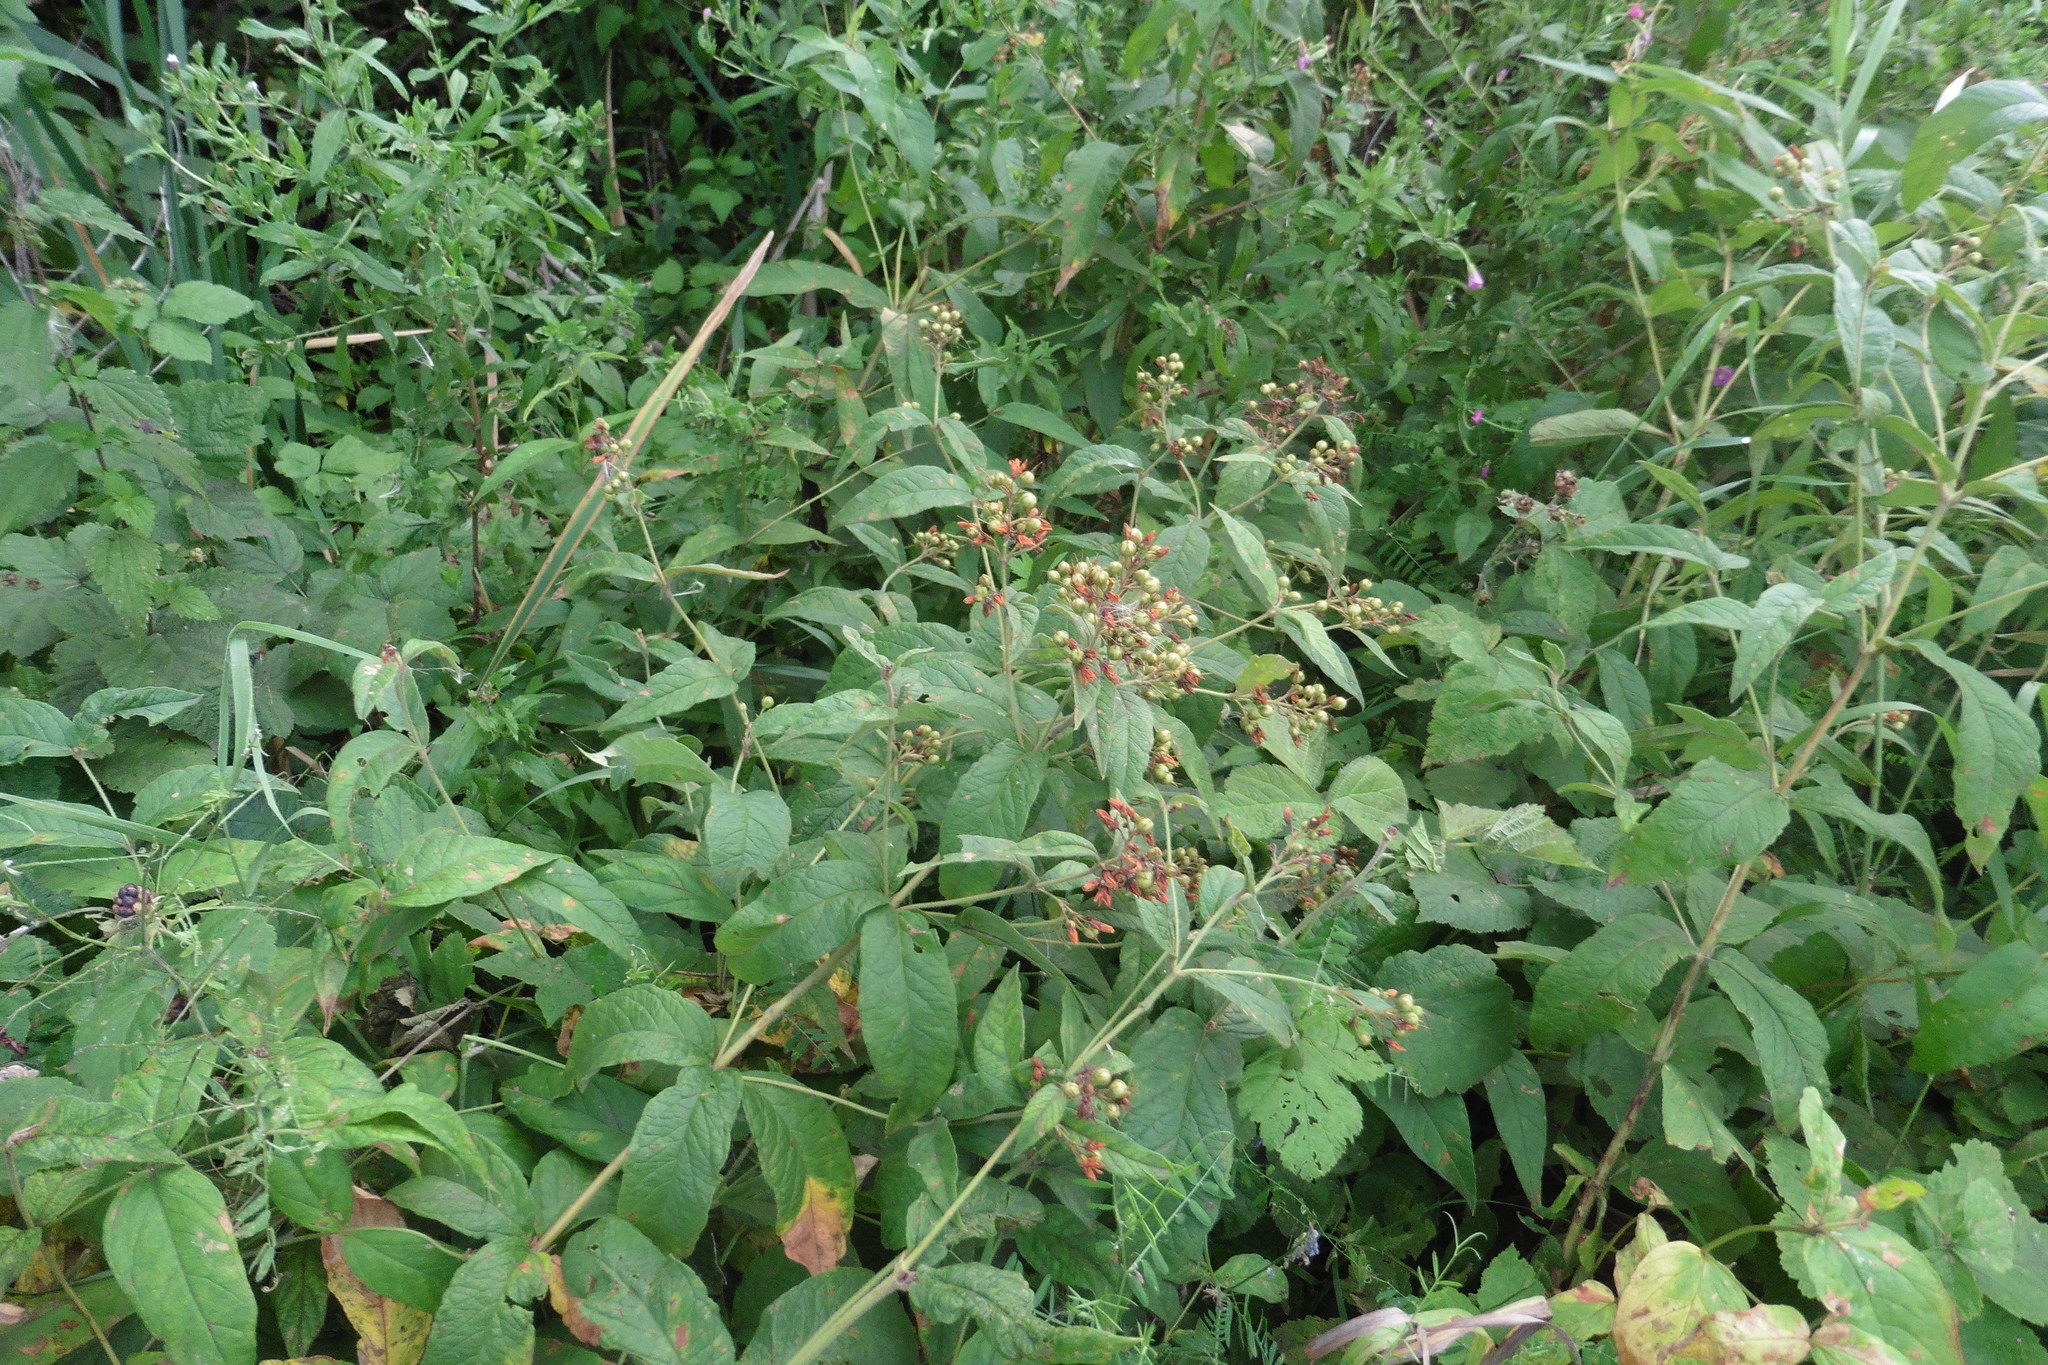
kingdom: Plantae
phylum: Tracheophyta
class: Magnoliopsida
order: Ericales
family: Primulaceae
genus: Lysimachia
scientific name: Lysimachia vulgaris
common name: Yellow loosestrife
